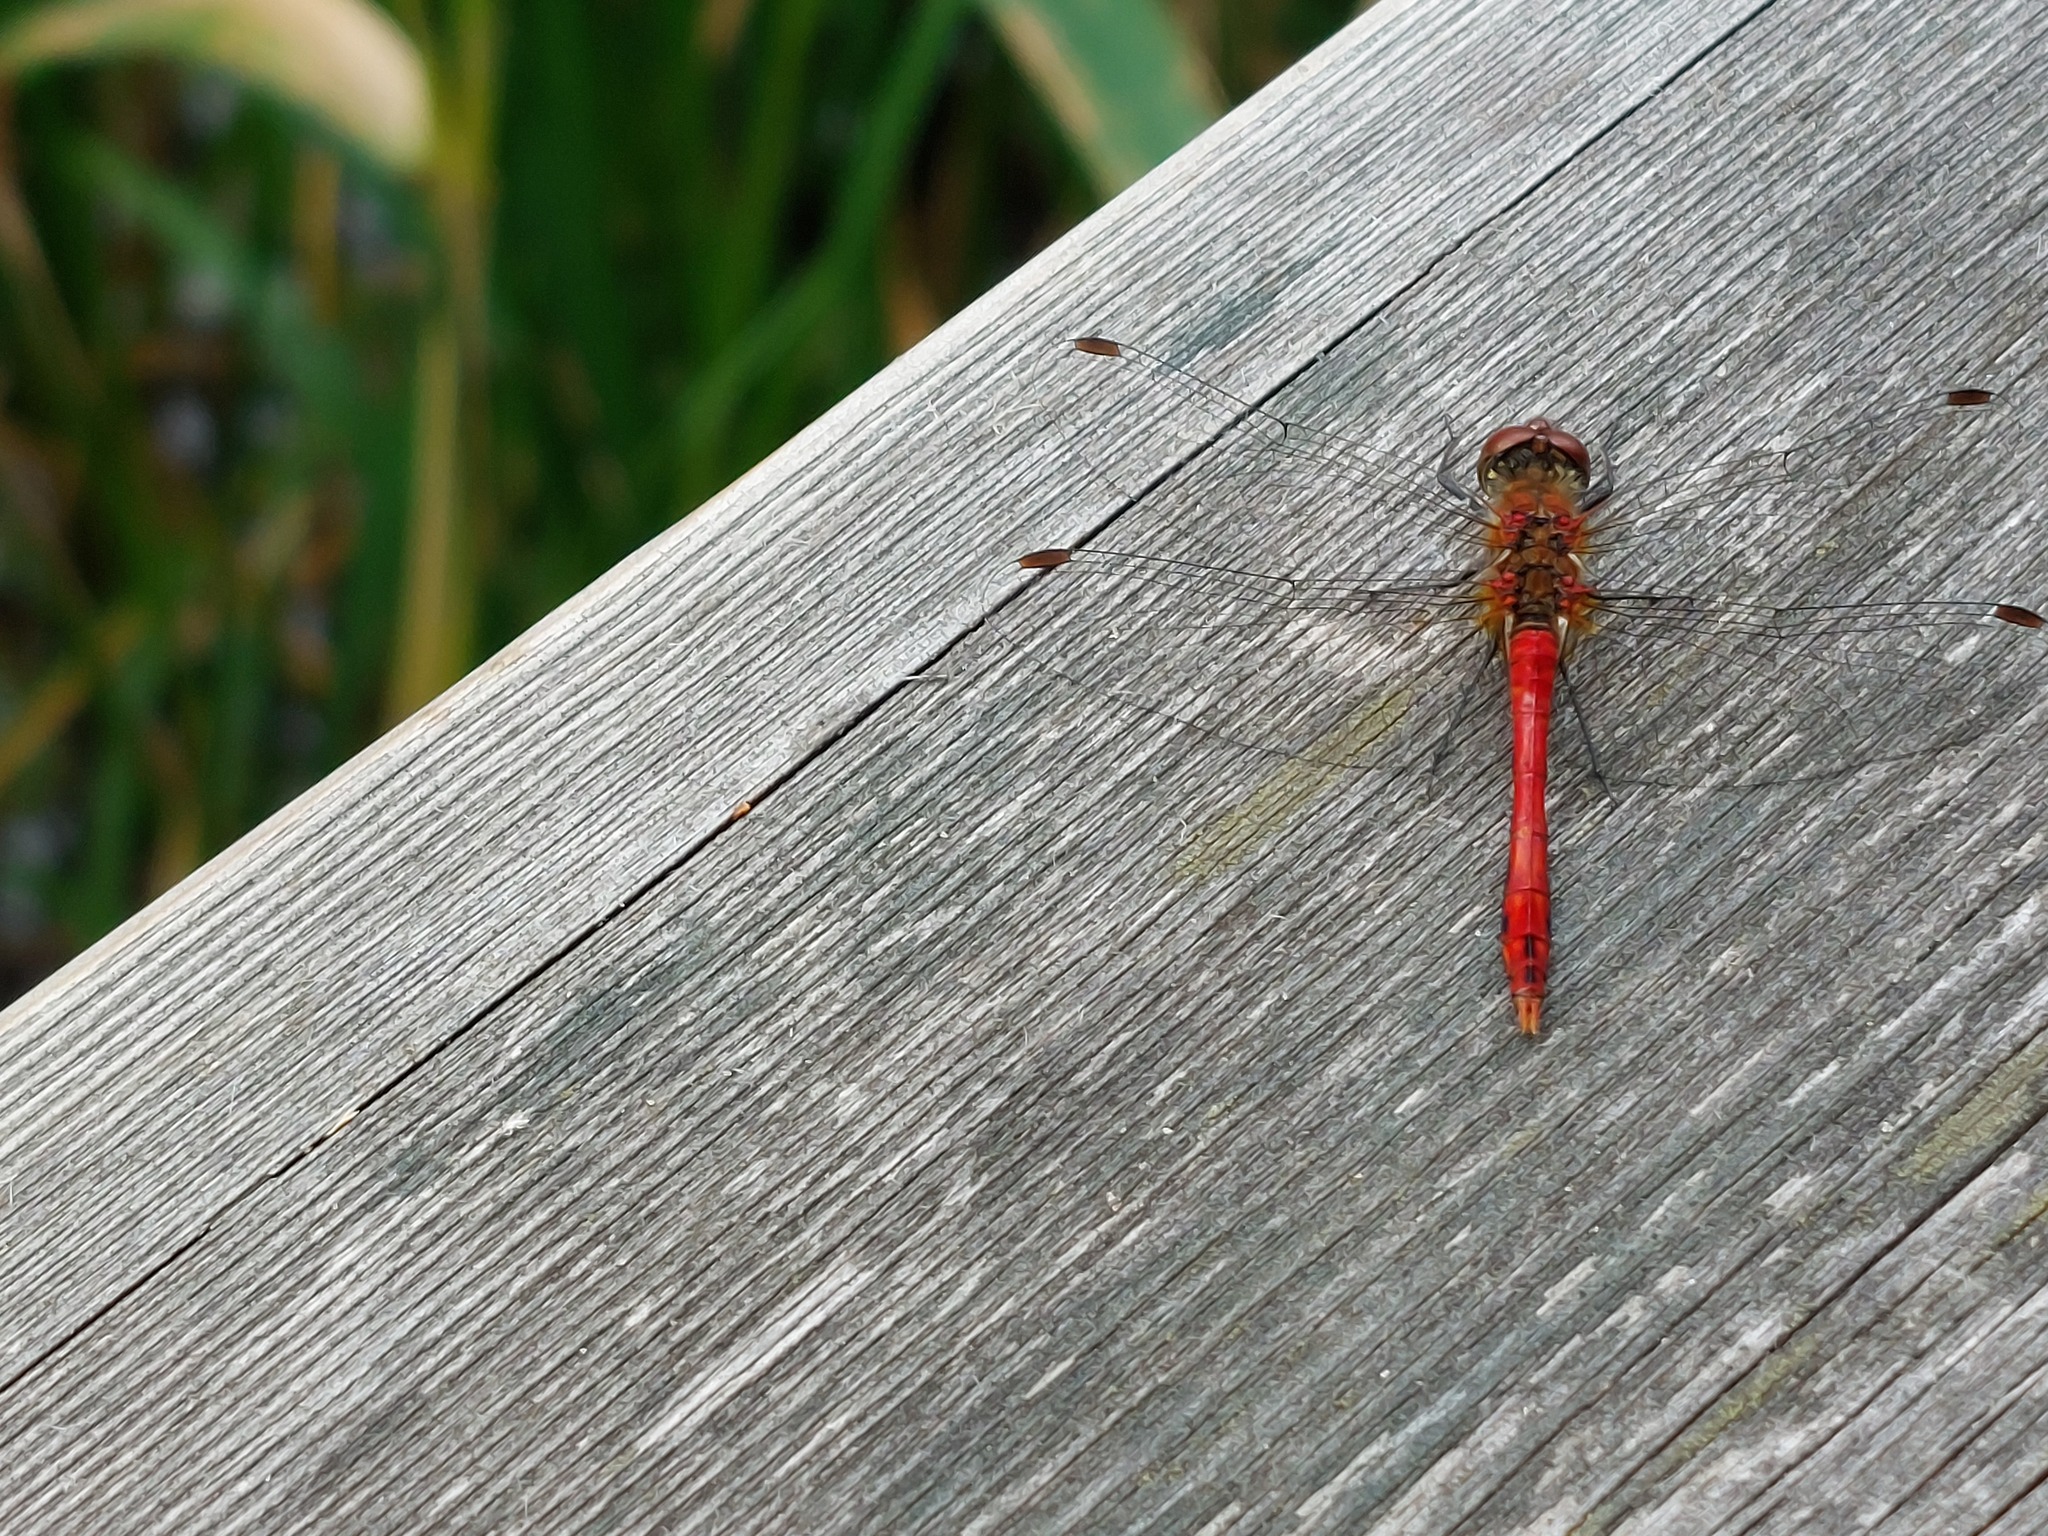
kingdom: Animalia
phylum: Arthropoda
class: Insecta
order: Odonata
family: Libellulidae
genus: Sympetrum
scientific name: Sympetrum sanguineum
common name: Ruddy darter
